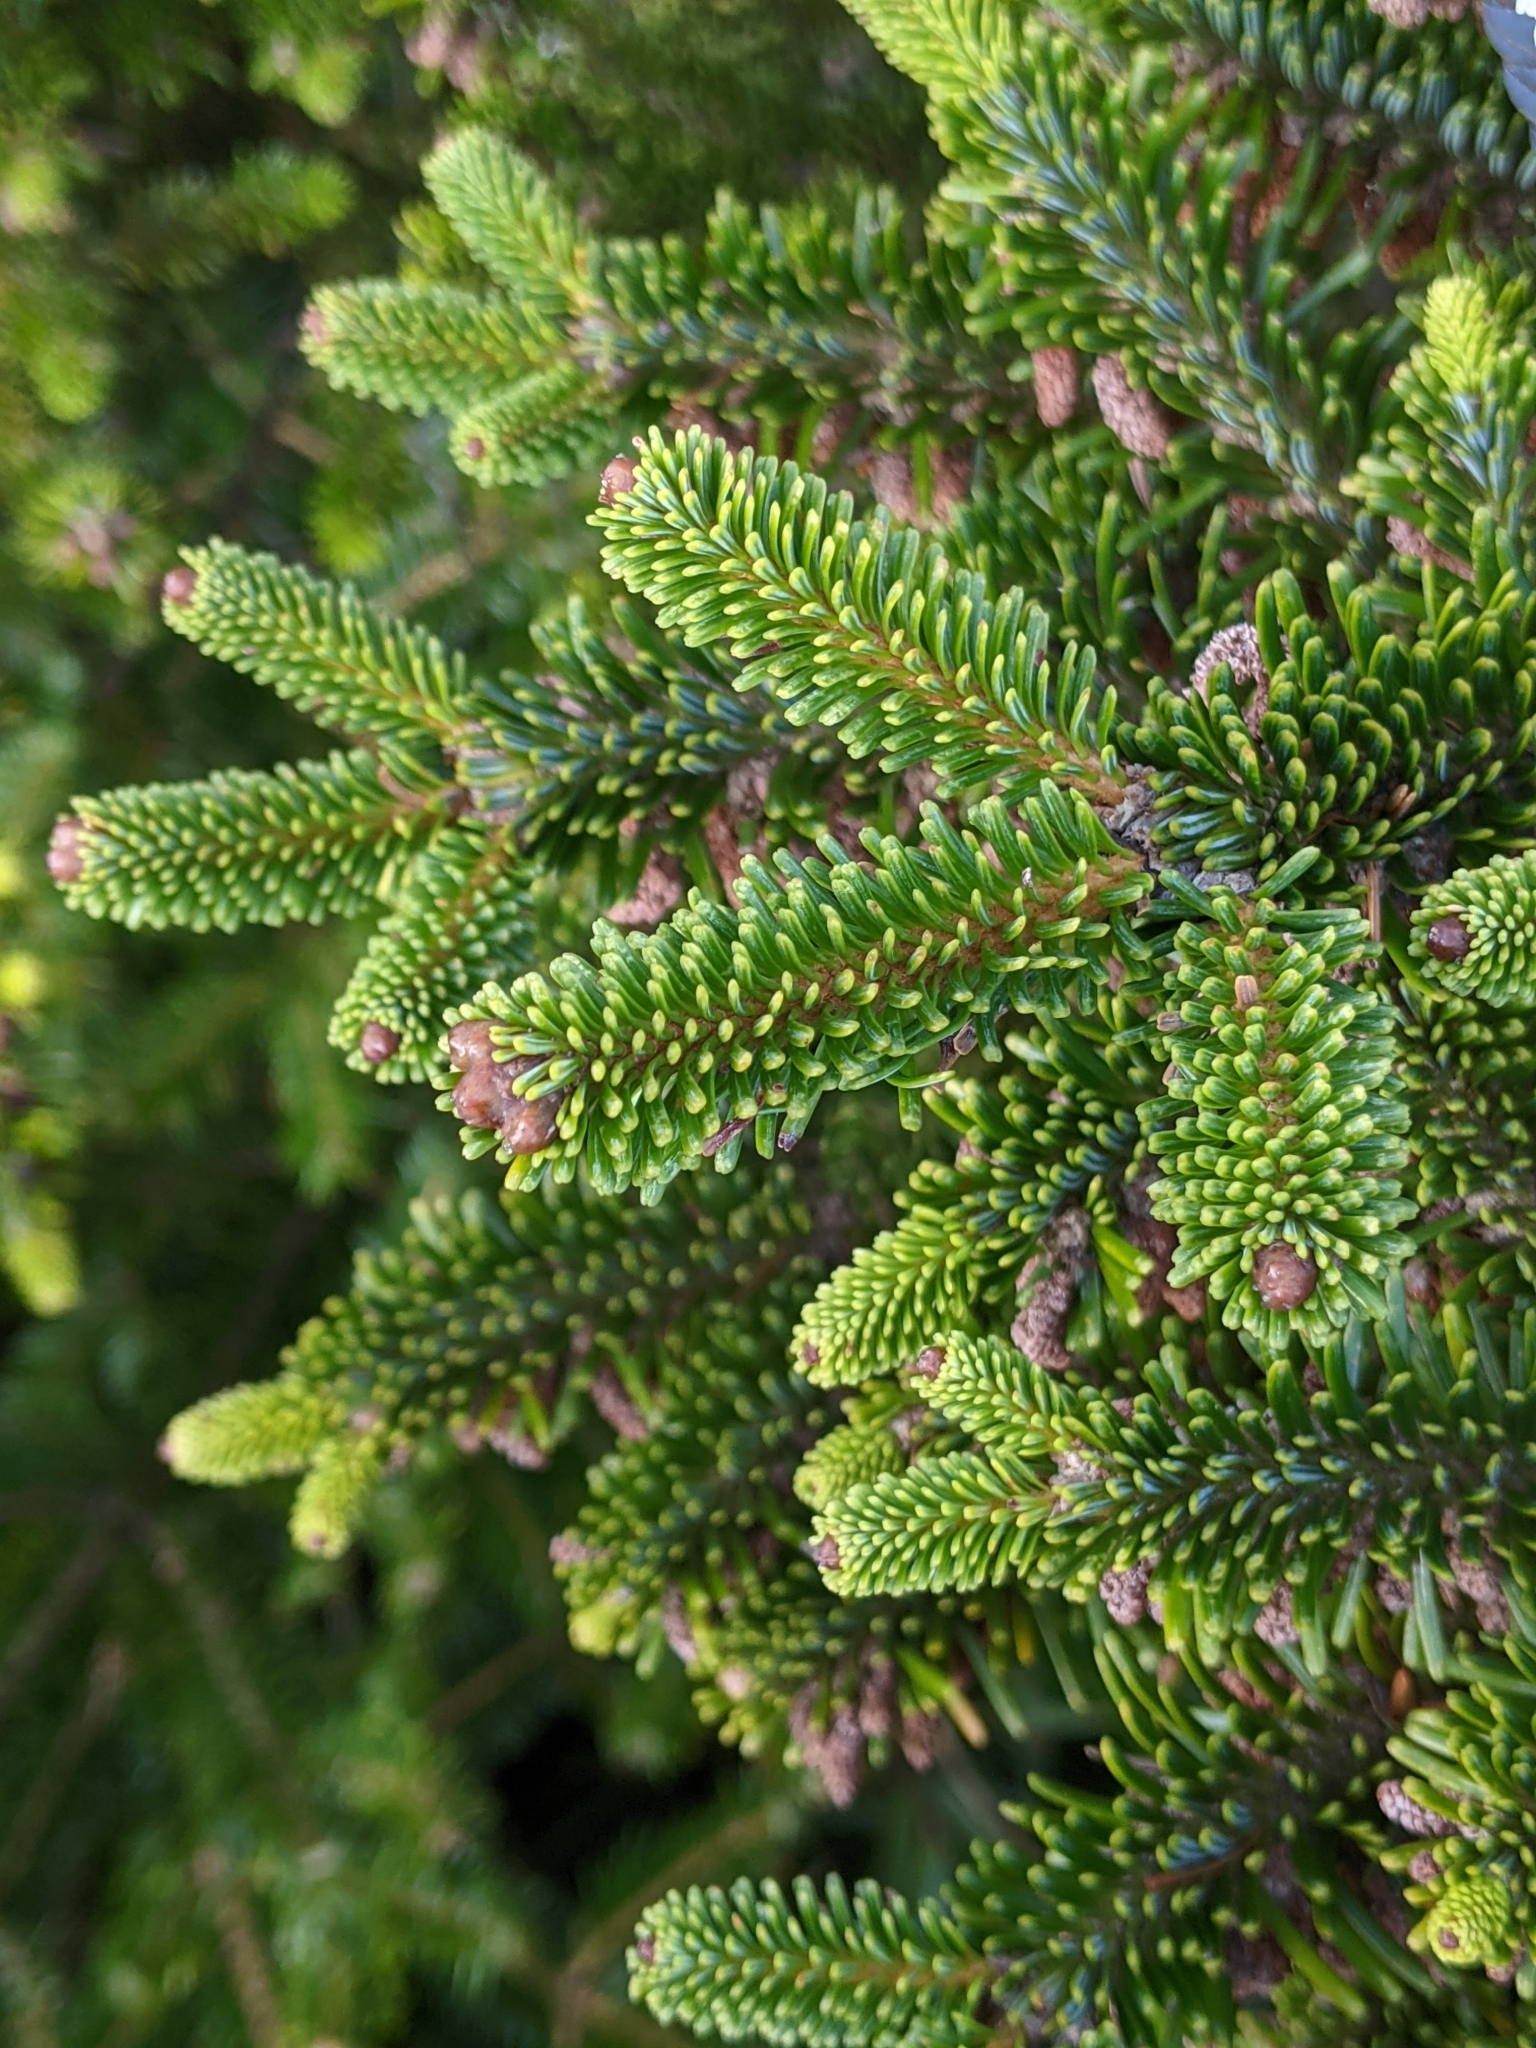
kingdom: Plantae
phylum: Tracheophyta
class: Pinopsida
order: Pinales
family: Pinaceae
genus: Abies
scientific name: Abies kawakamii
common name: Taiwan fir
